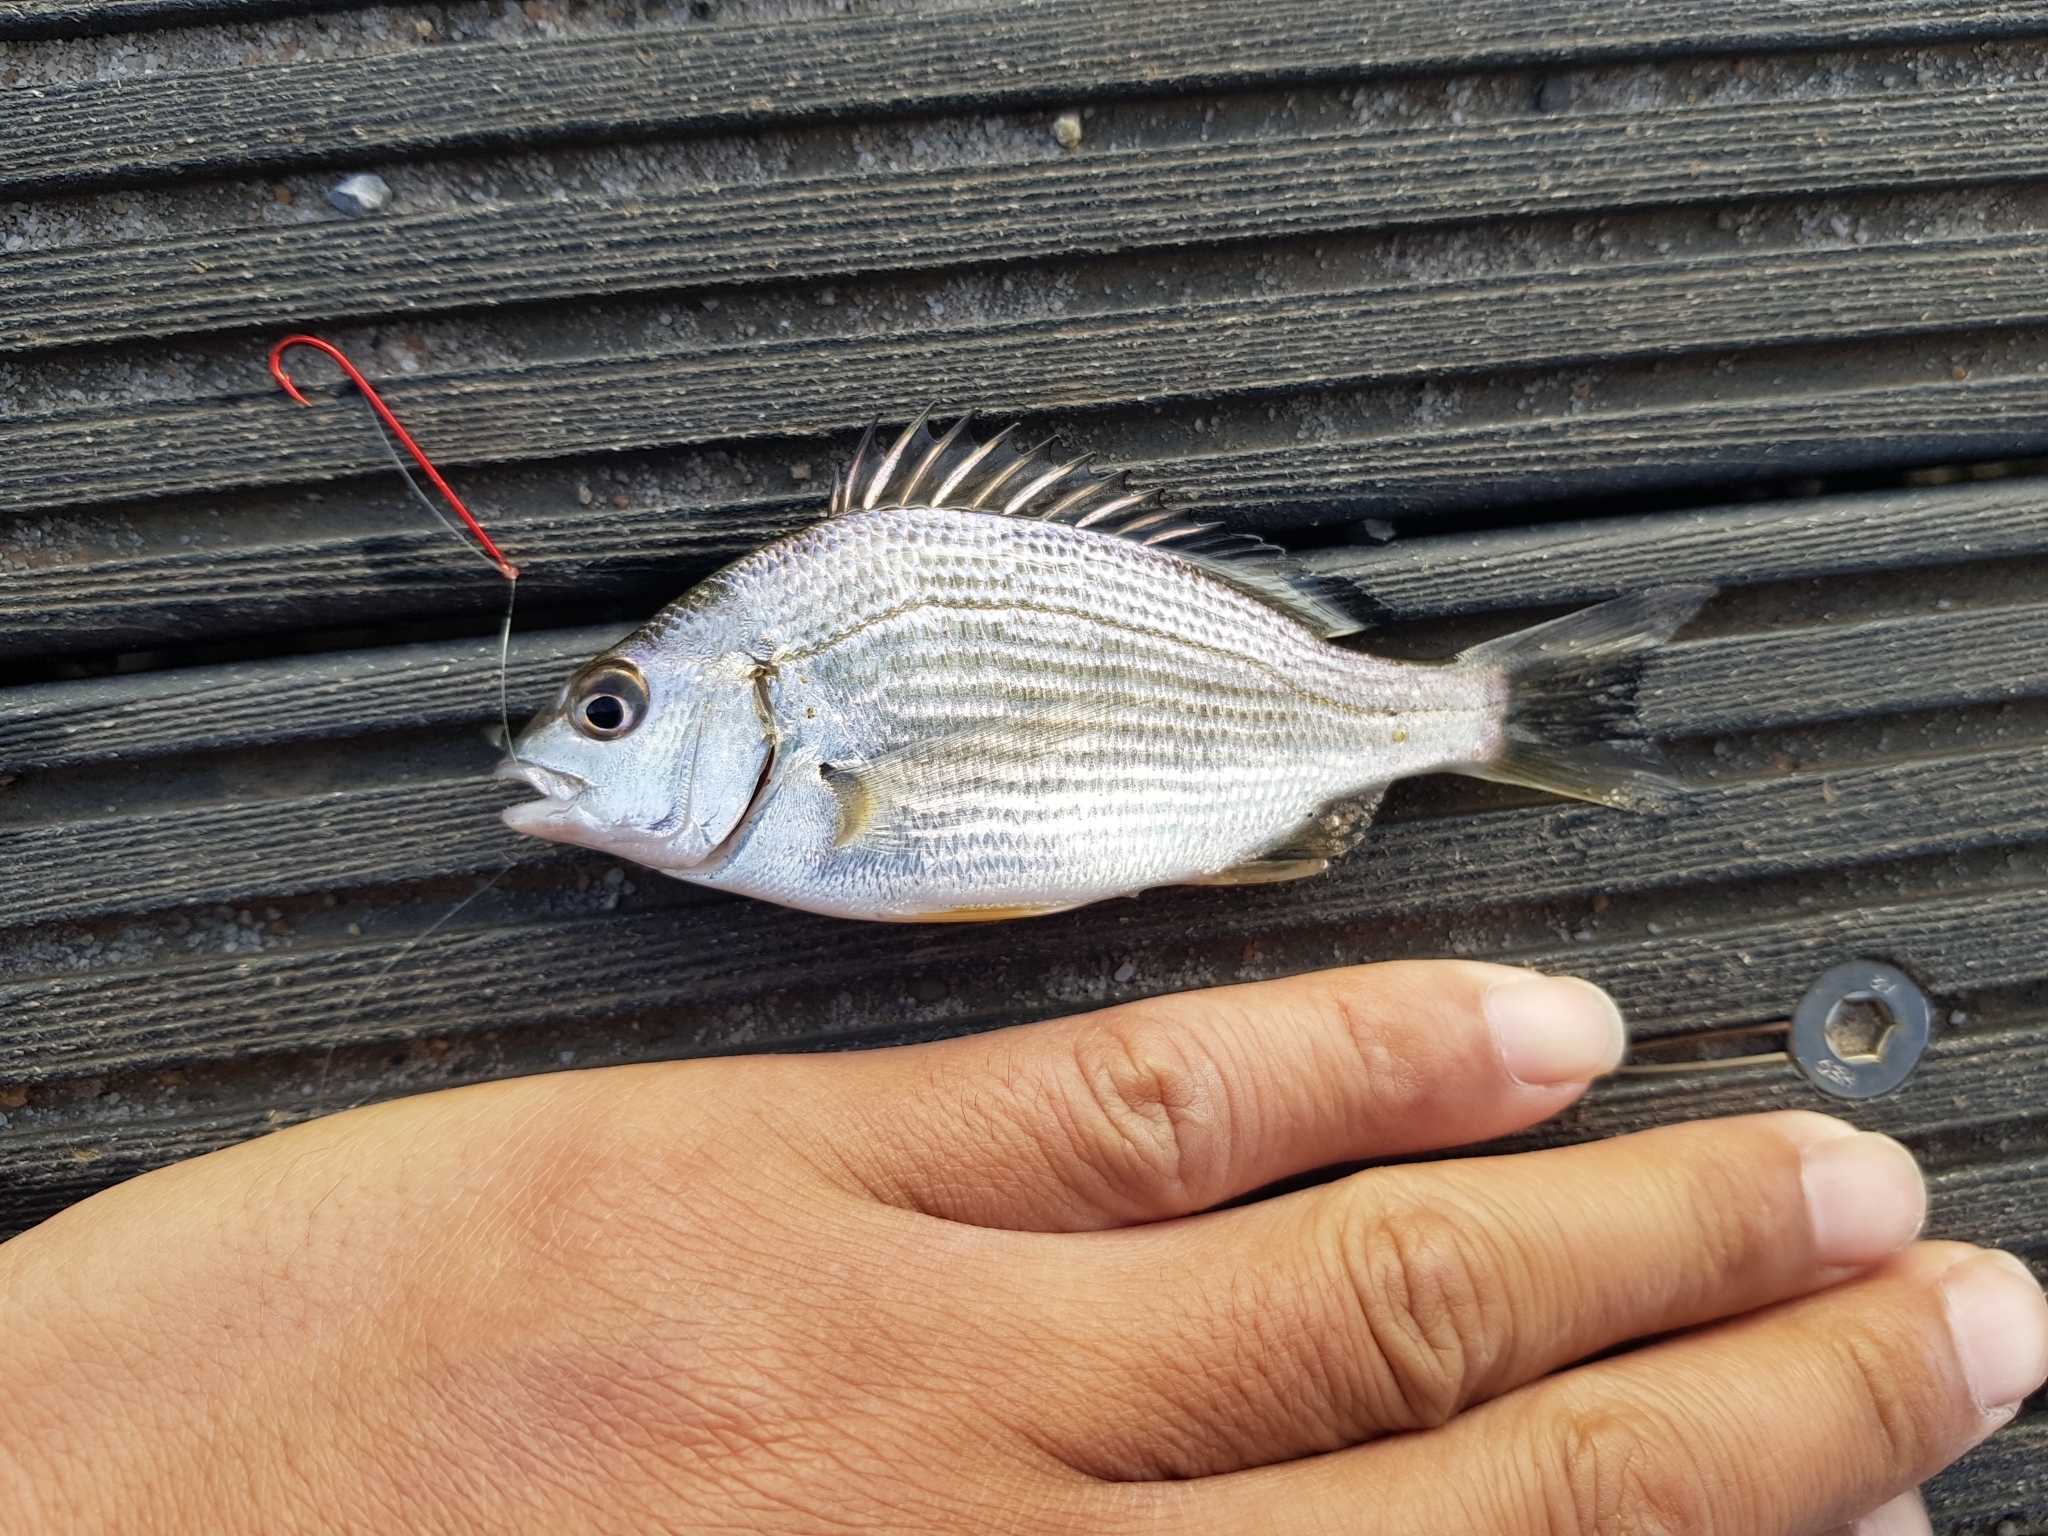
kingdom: Animalia
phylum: Chordata
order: Perciformes
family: Sparidae
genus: Acanthopagrus
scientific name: Acanthopagrus butcheri
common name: Black bream
